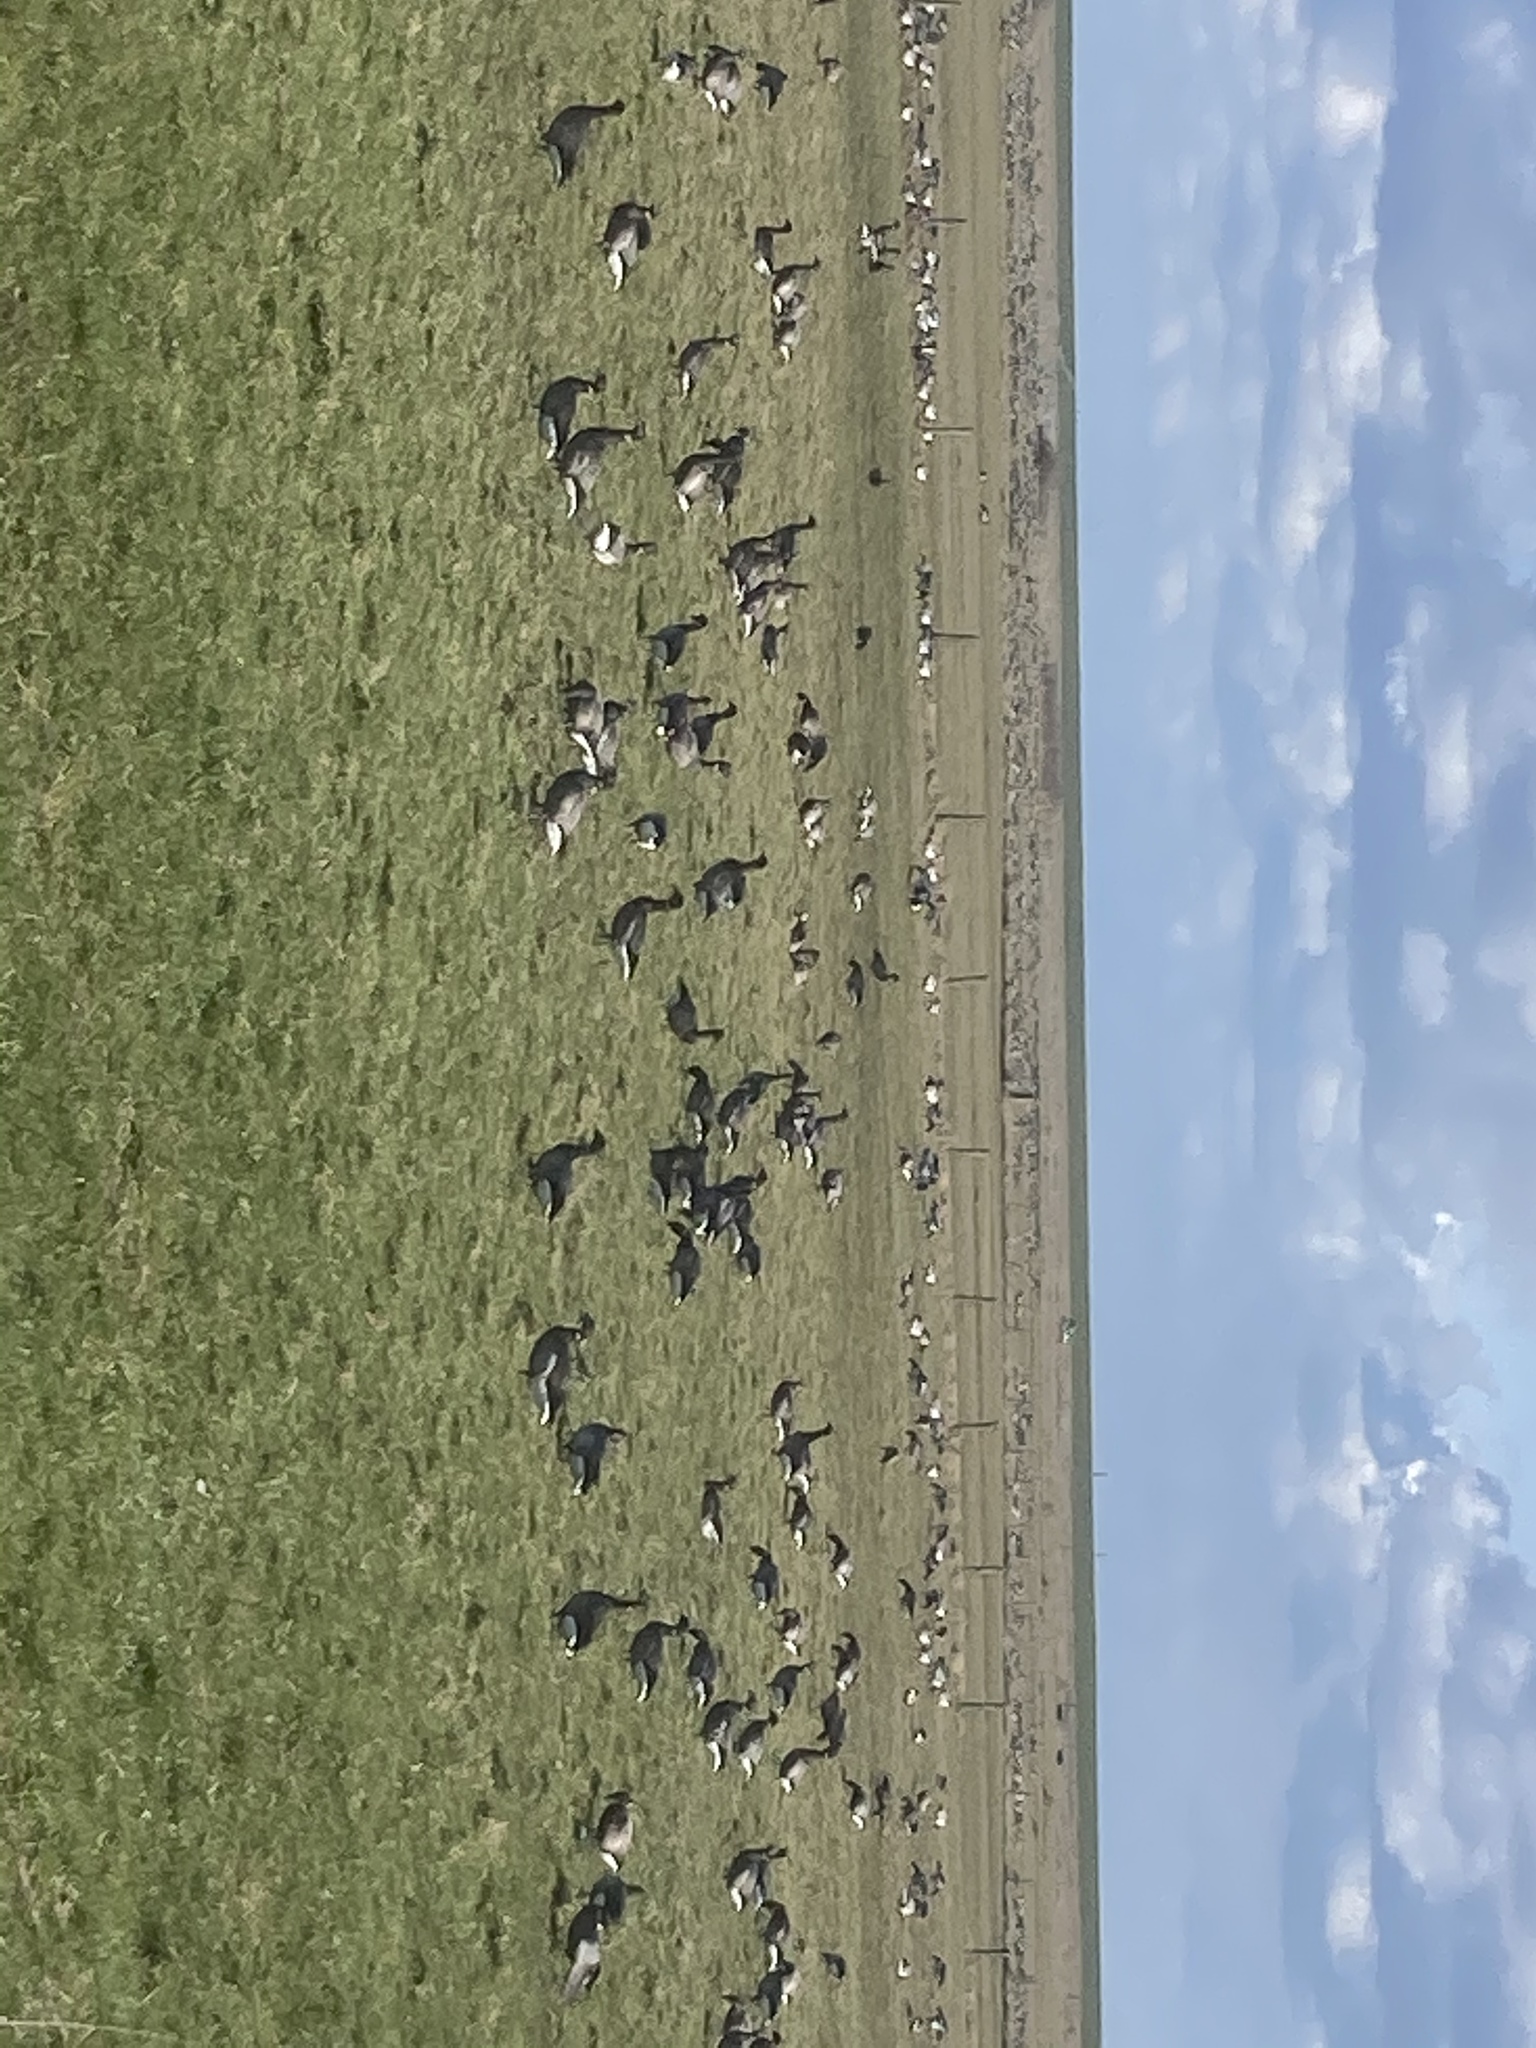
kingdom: Animalia
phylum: Chordata
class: Aves
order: Anseriformes
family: Anatidae
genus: Branta
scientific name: Branta bernicla
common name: Brant goose
